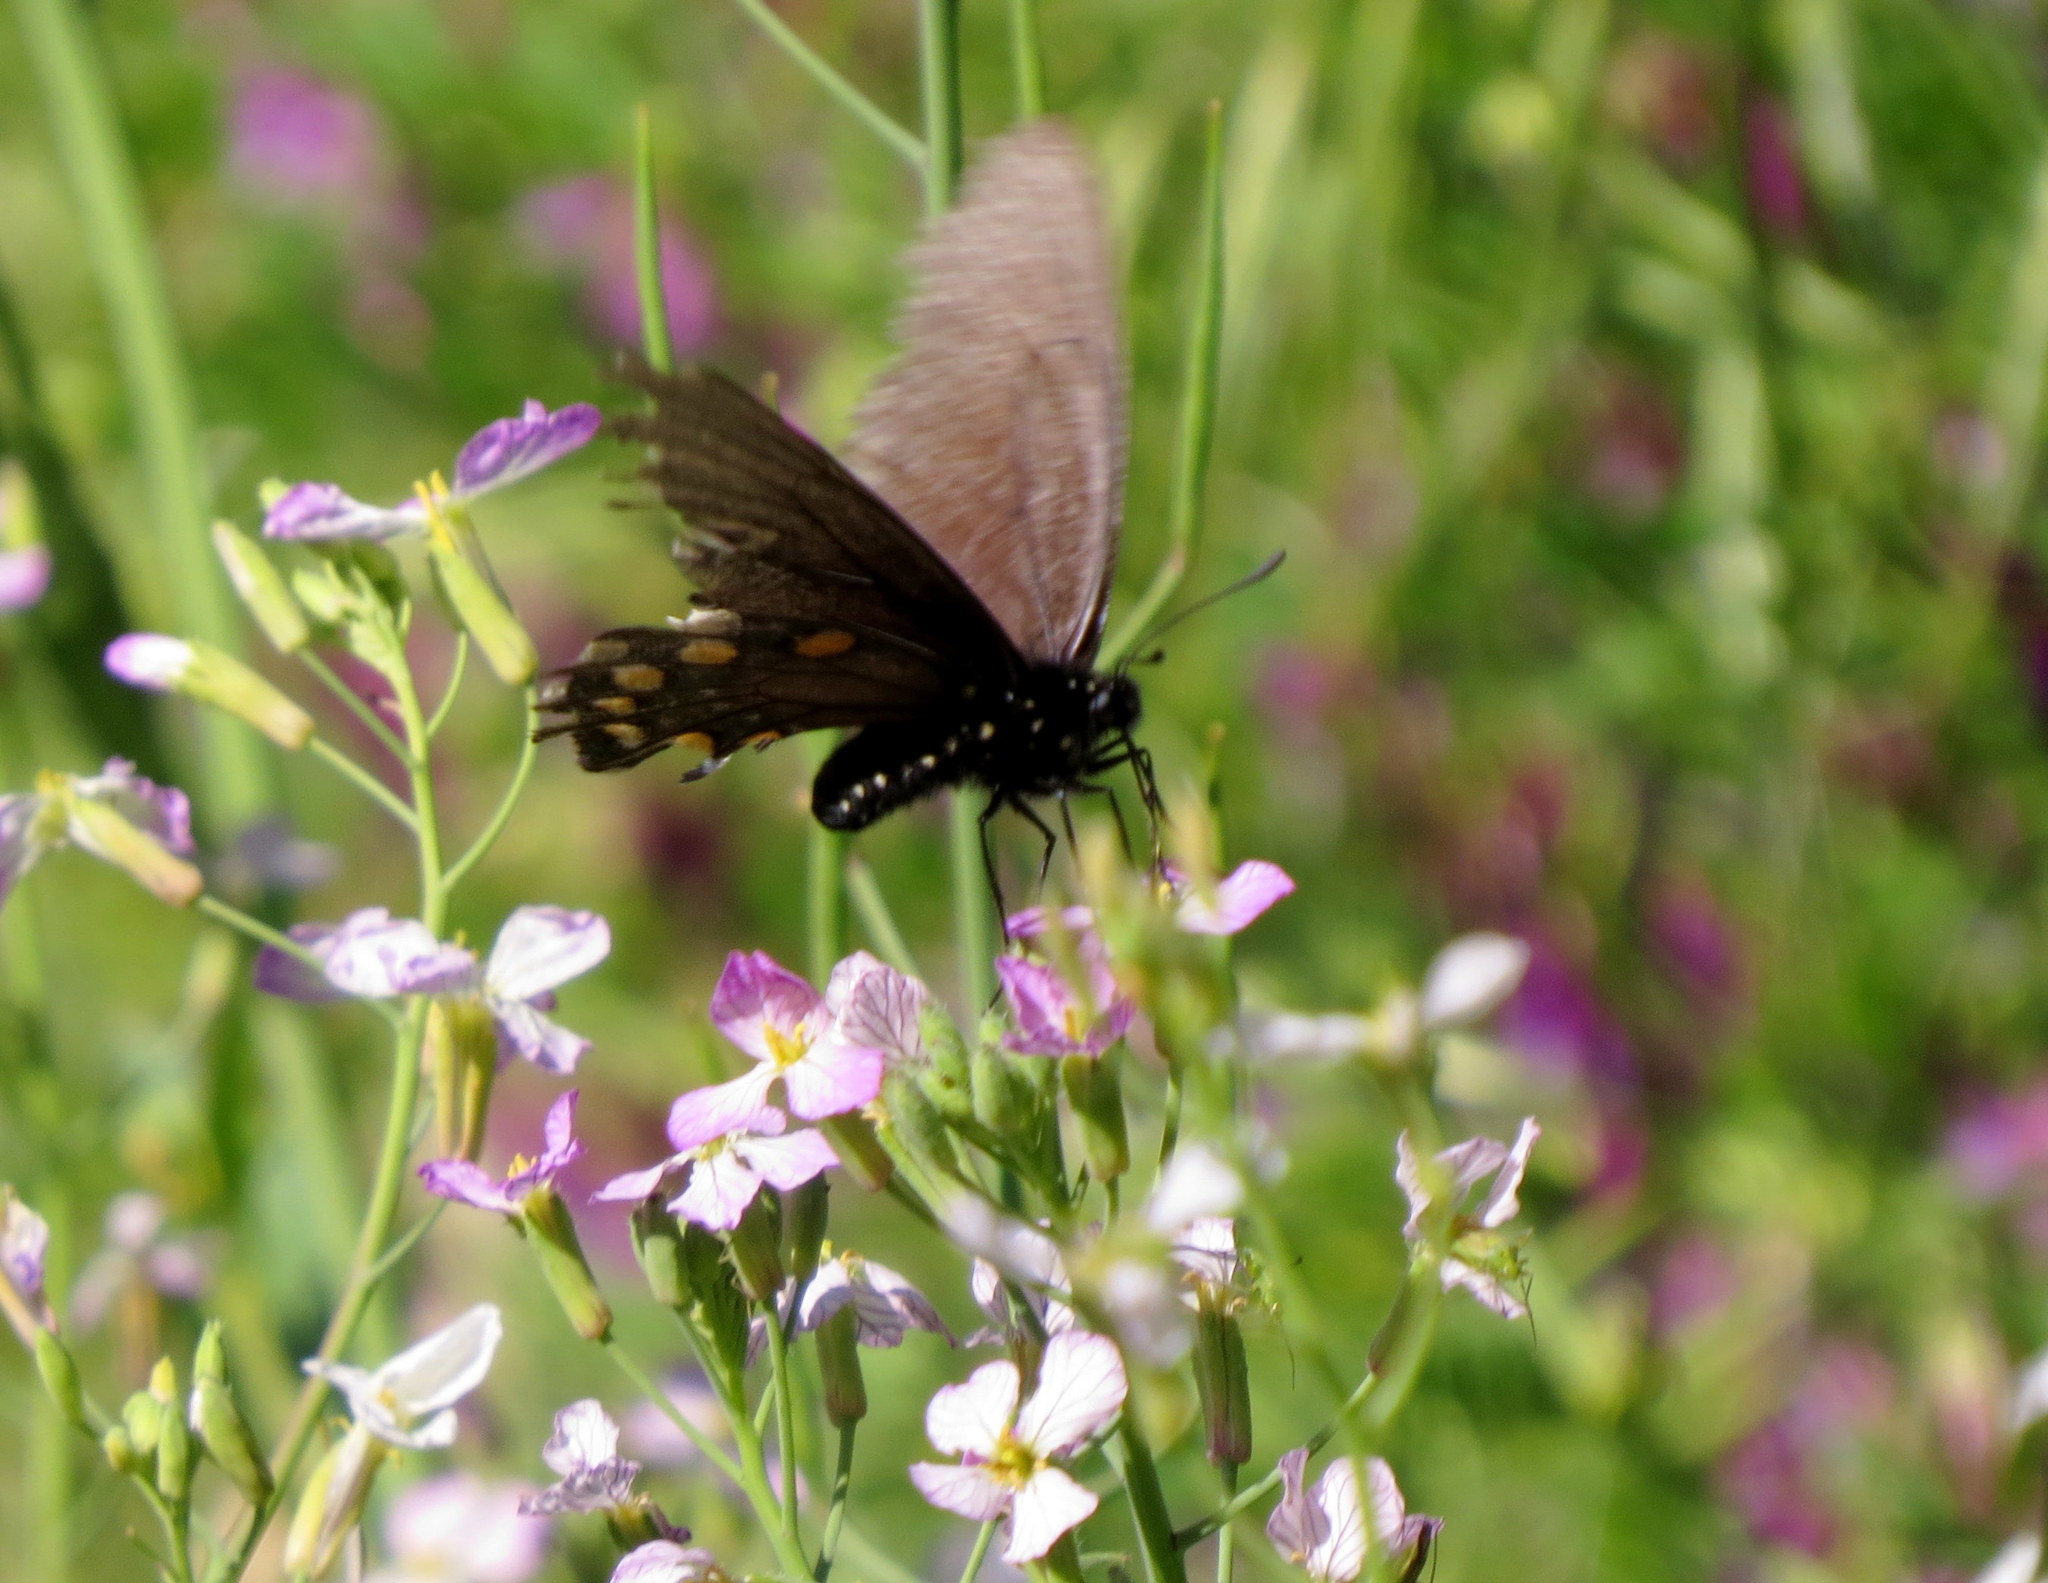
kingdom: Animalia
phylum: Arthropoda
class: Insecta
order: Lepidoptera
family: Papilionidae
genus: Battus
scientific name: Battus philenor
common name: Pipevine swallowtail
